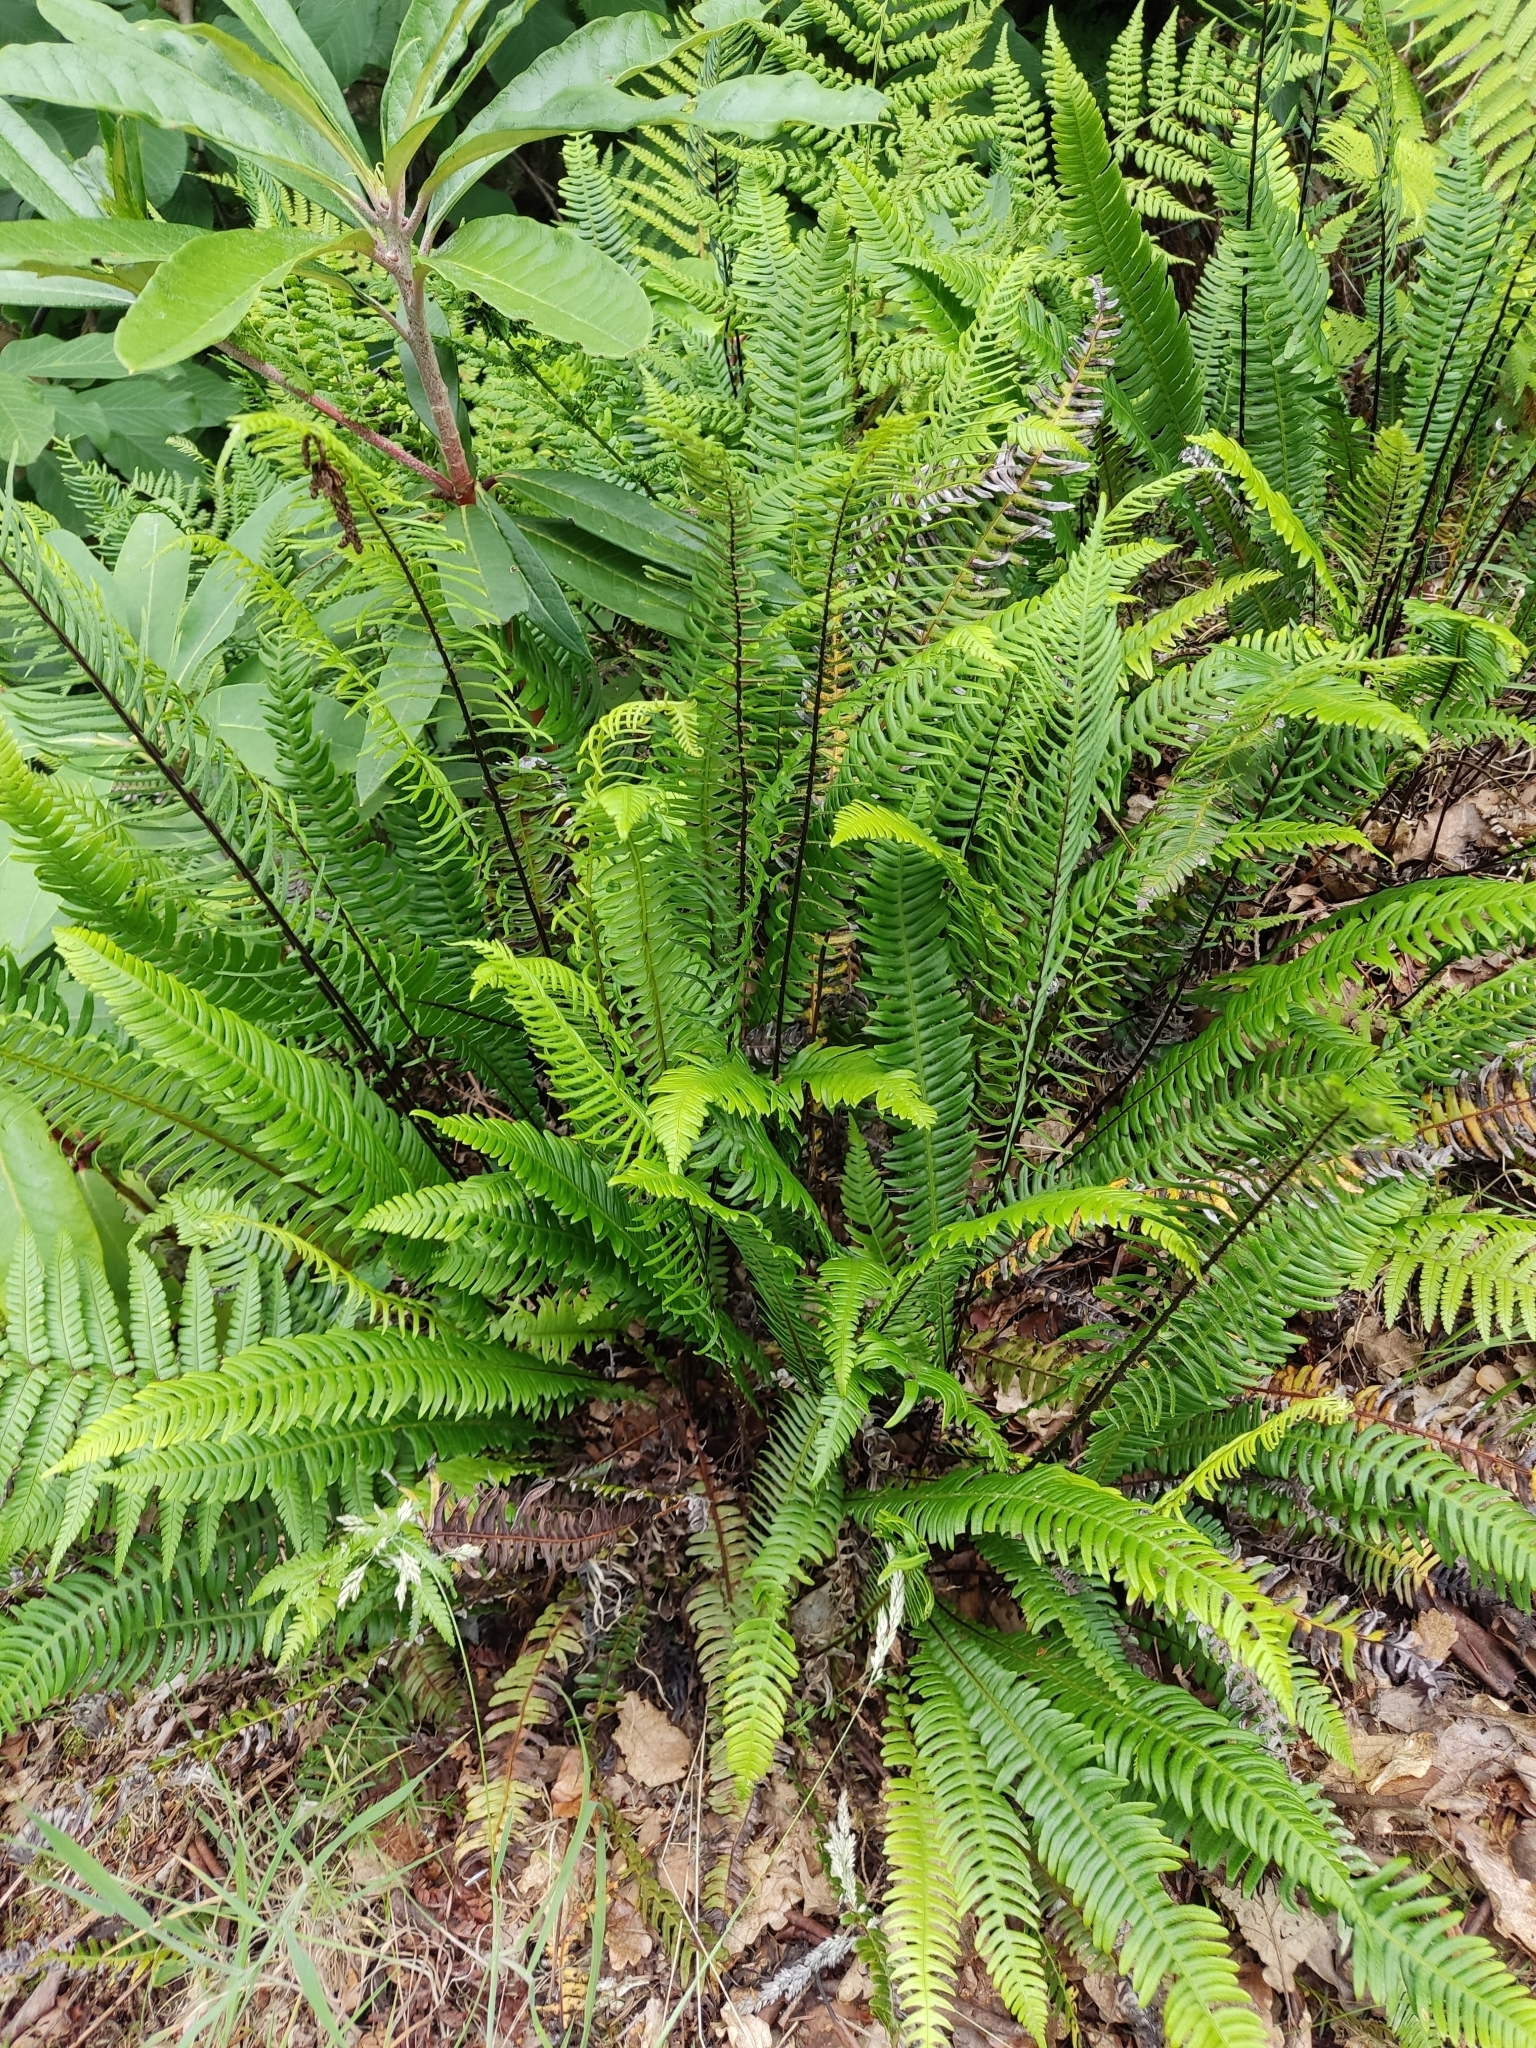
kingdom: Plantae
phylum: Tracheophyta
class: Polypodiopsida
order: Polypodiales
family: Blechnaceae
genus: Struthiopteris
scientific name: Struthiopteris spicant
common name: Deer fern
